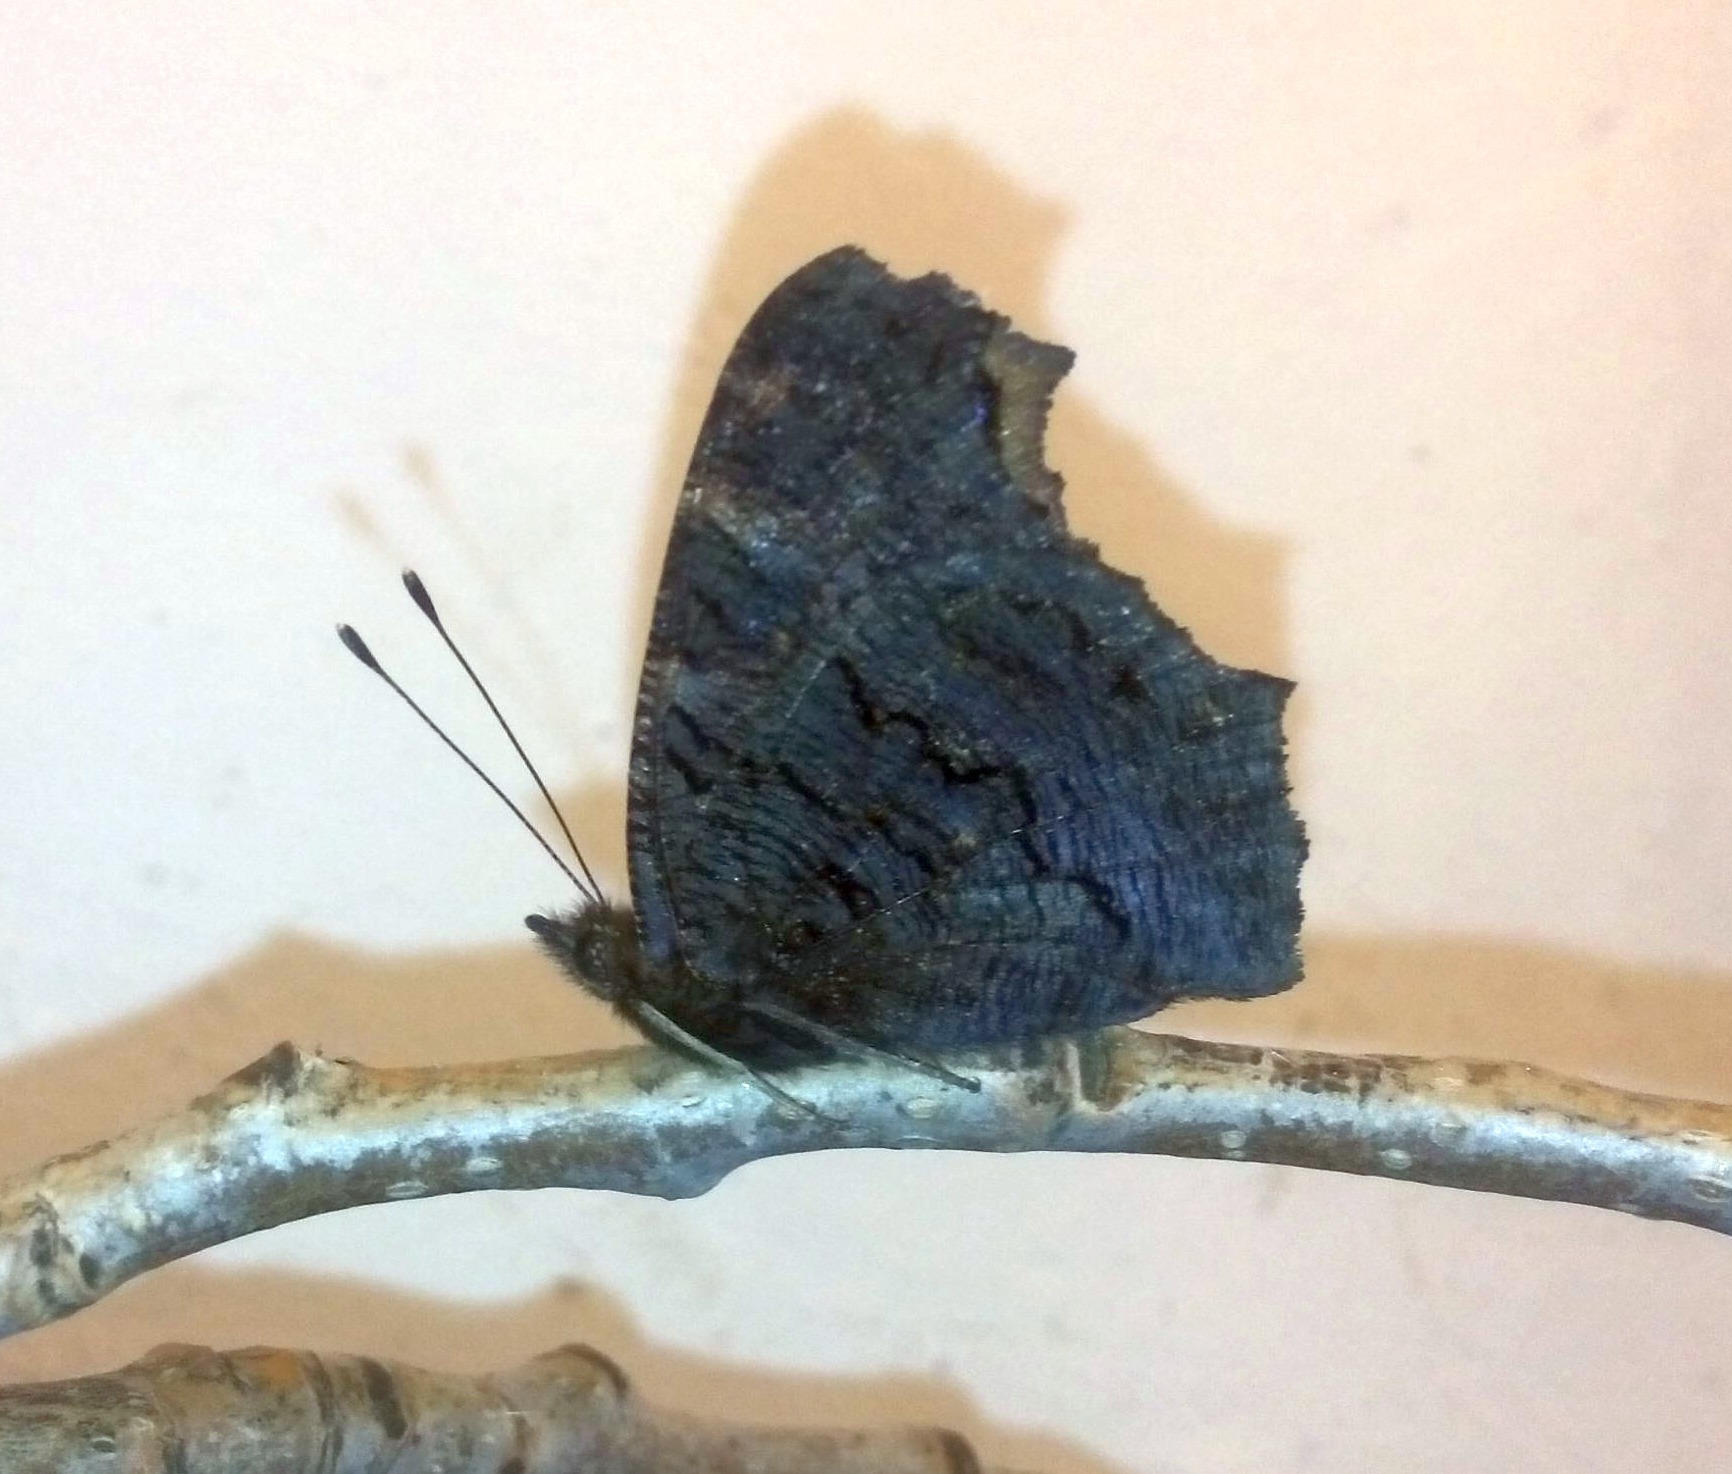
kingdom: Animalia
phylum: Arthropoda
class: Insecta
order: Lepidoptera
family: Nymphalidae
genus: Aglais
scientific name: Aglais io
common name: Peacock
